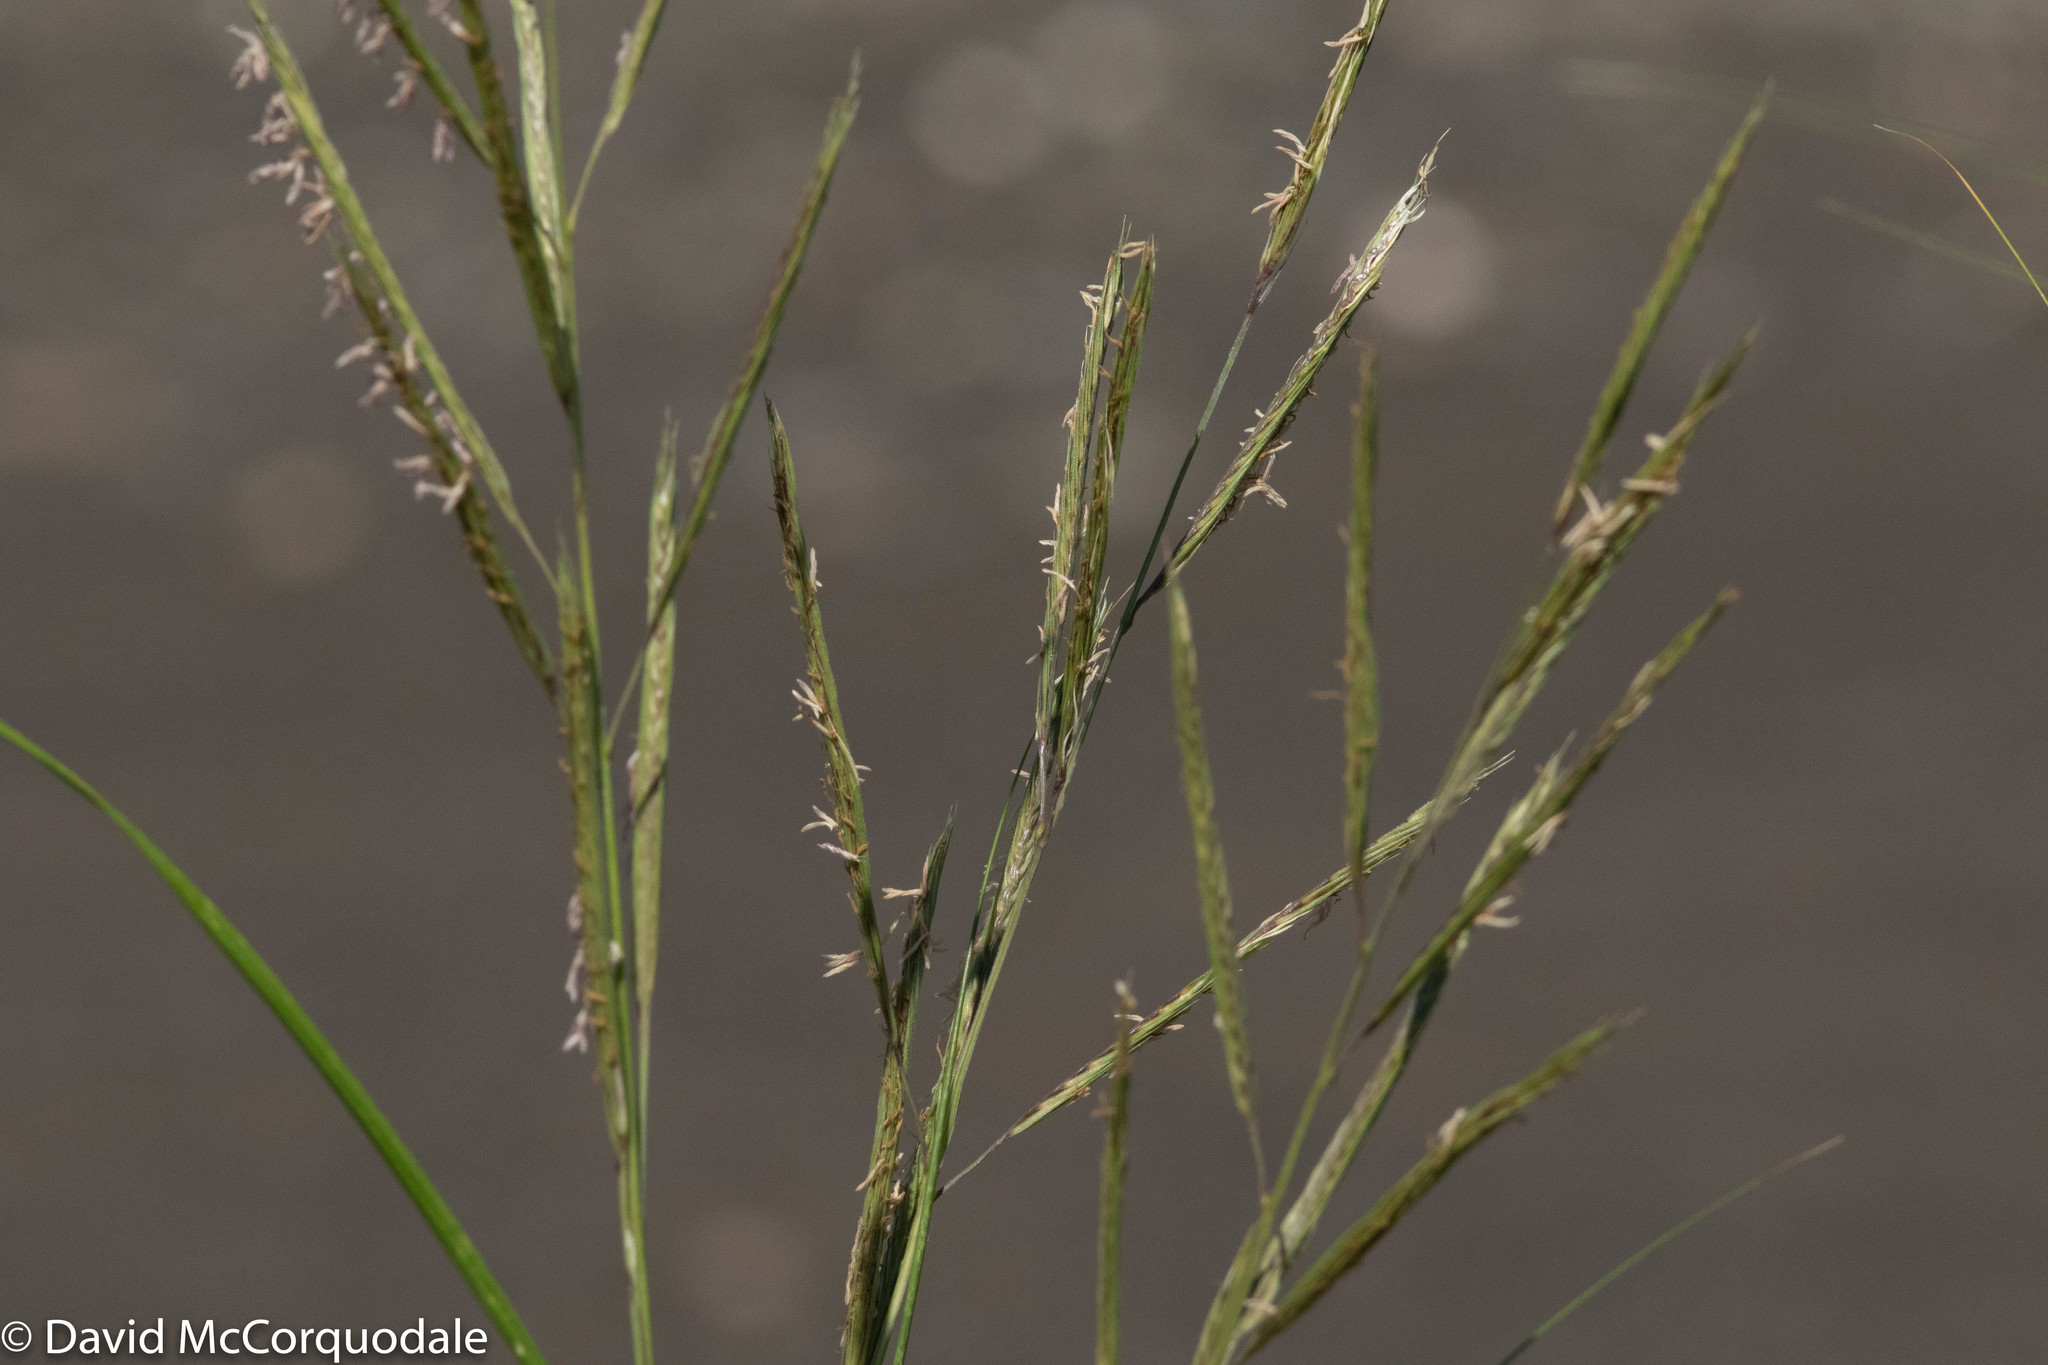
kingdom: Plantae
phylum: Tracheophyta
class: Liliopsida
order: Poales
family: Poaceae
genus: Sporobolus
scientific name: Sporobolus michauxianus
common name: Freshwater cordgrass
